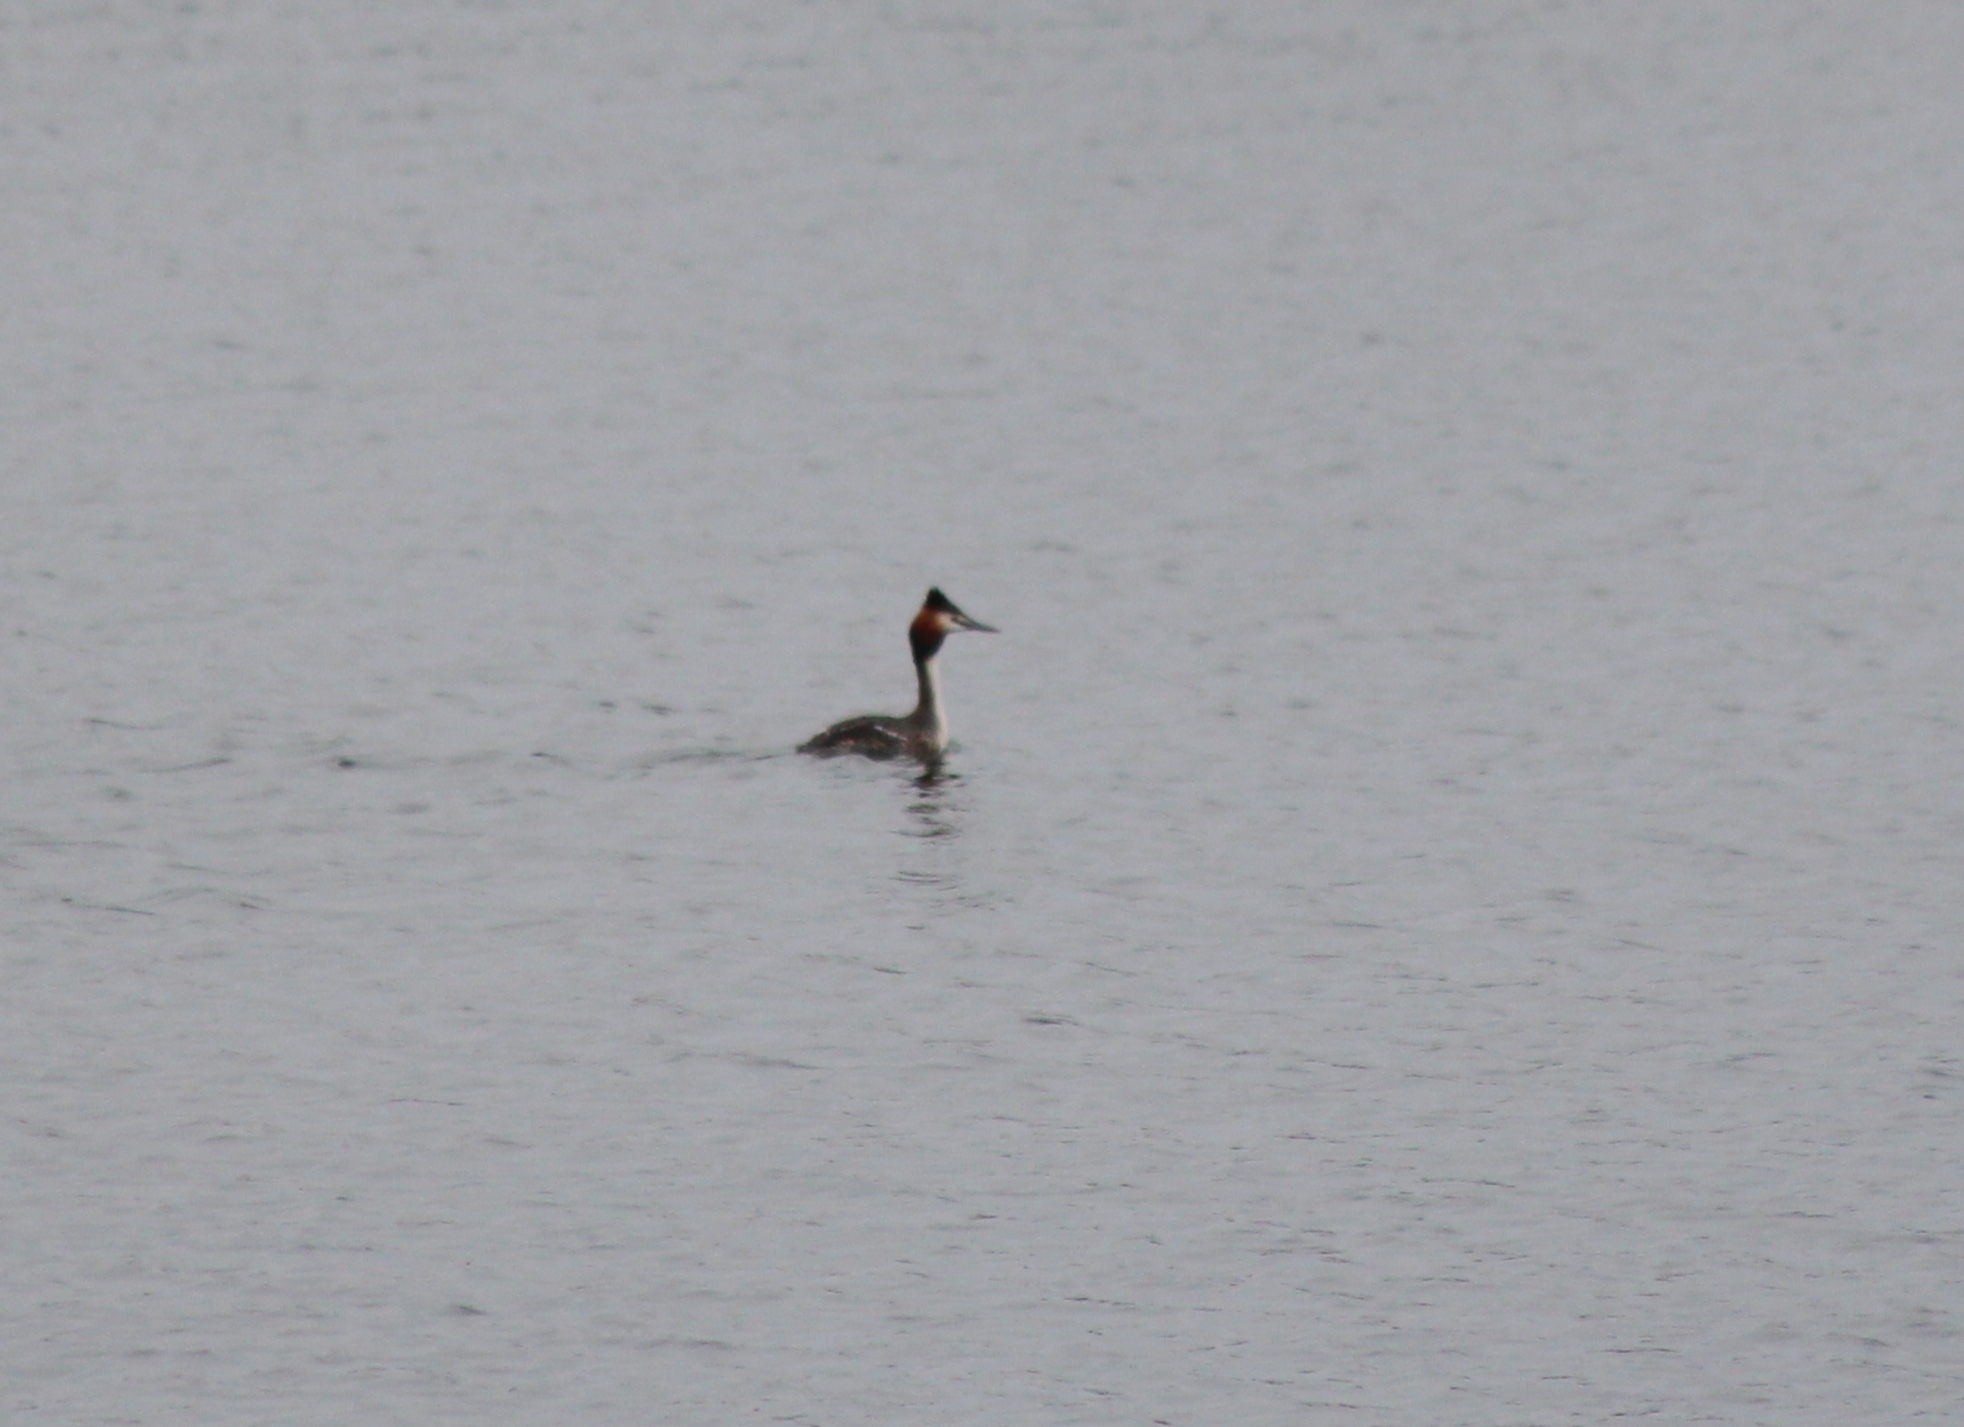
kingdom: Animalia
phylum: Chordata
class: Aves
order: Podicipediformes
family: Podicipedidae
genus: Podiceps
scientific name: Podiceps cristatus
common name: Great crested grebe
